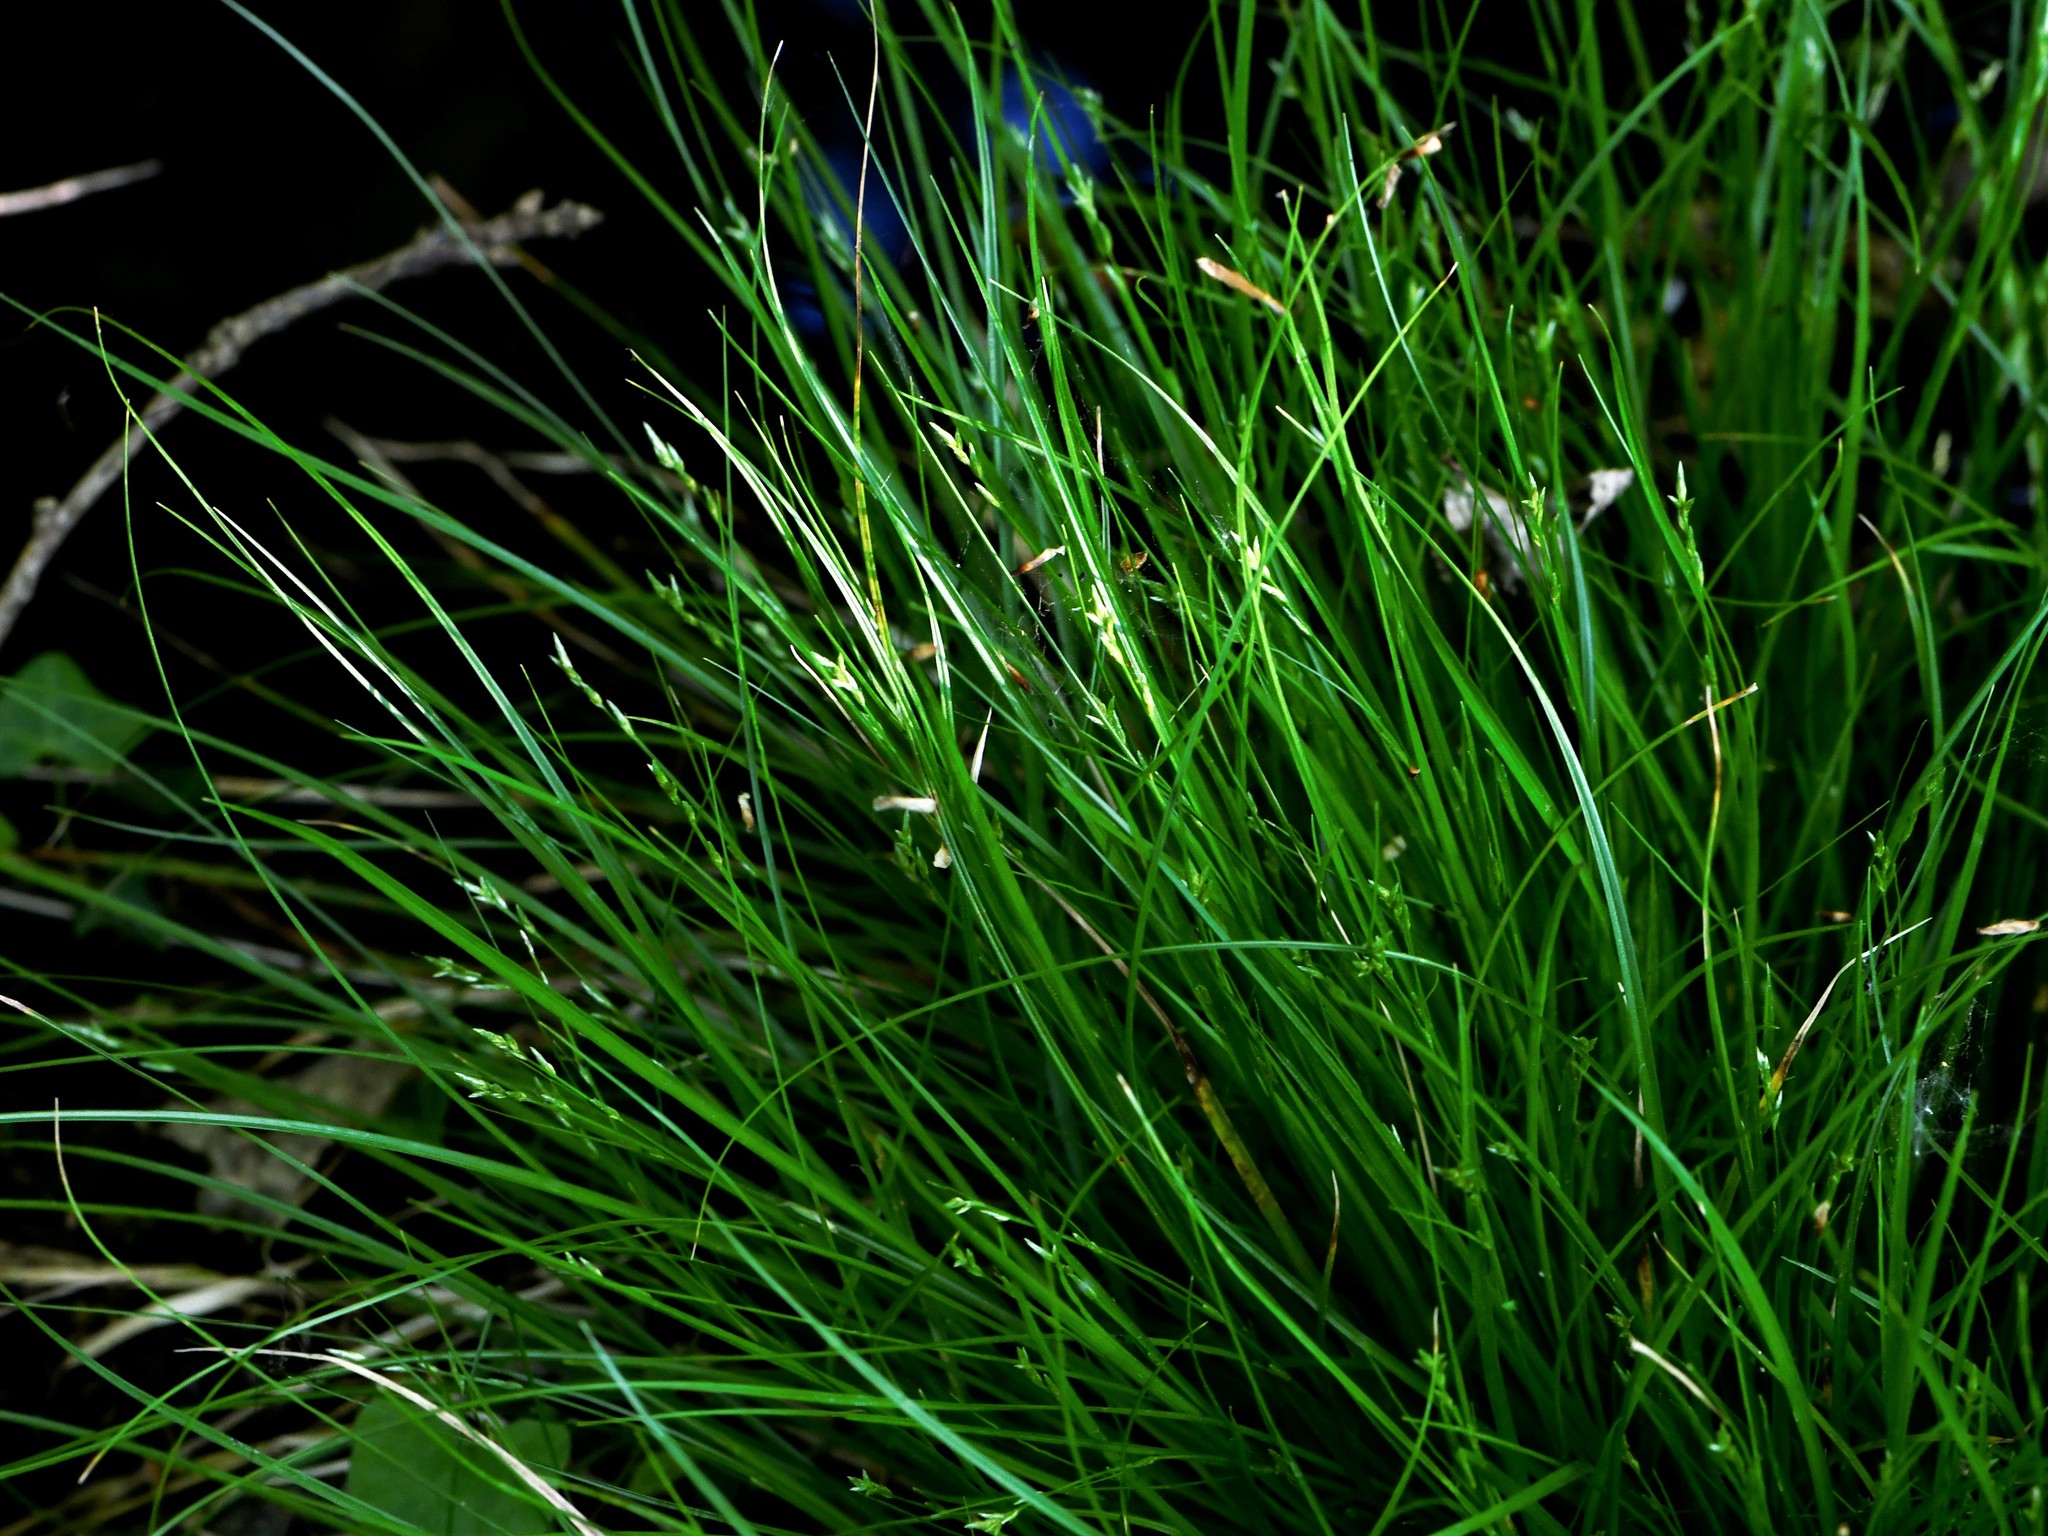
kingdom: Plantae
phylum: Tracheophyta
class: Liliopsida
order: Poales
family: Cyperaceae
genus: Carex
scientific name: Carex remota
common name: Remote sedge
